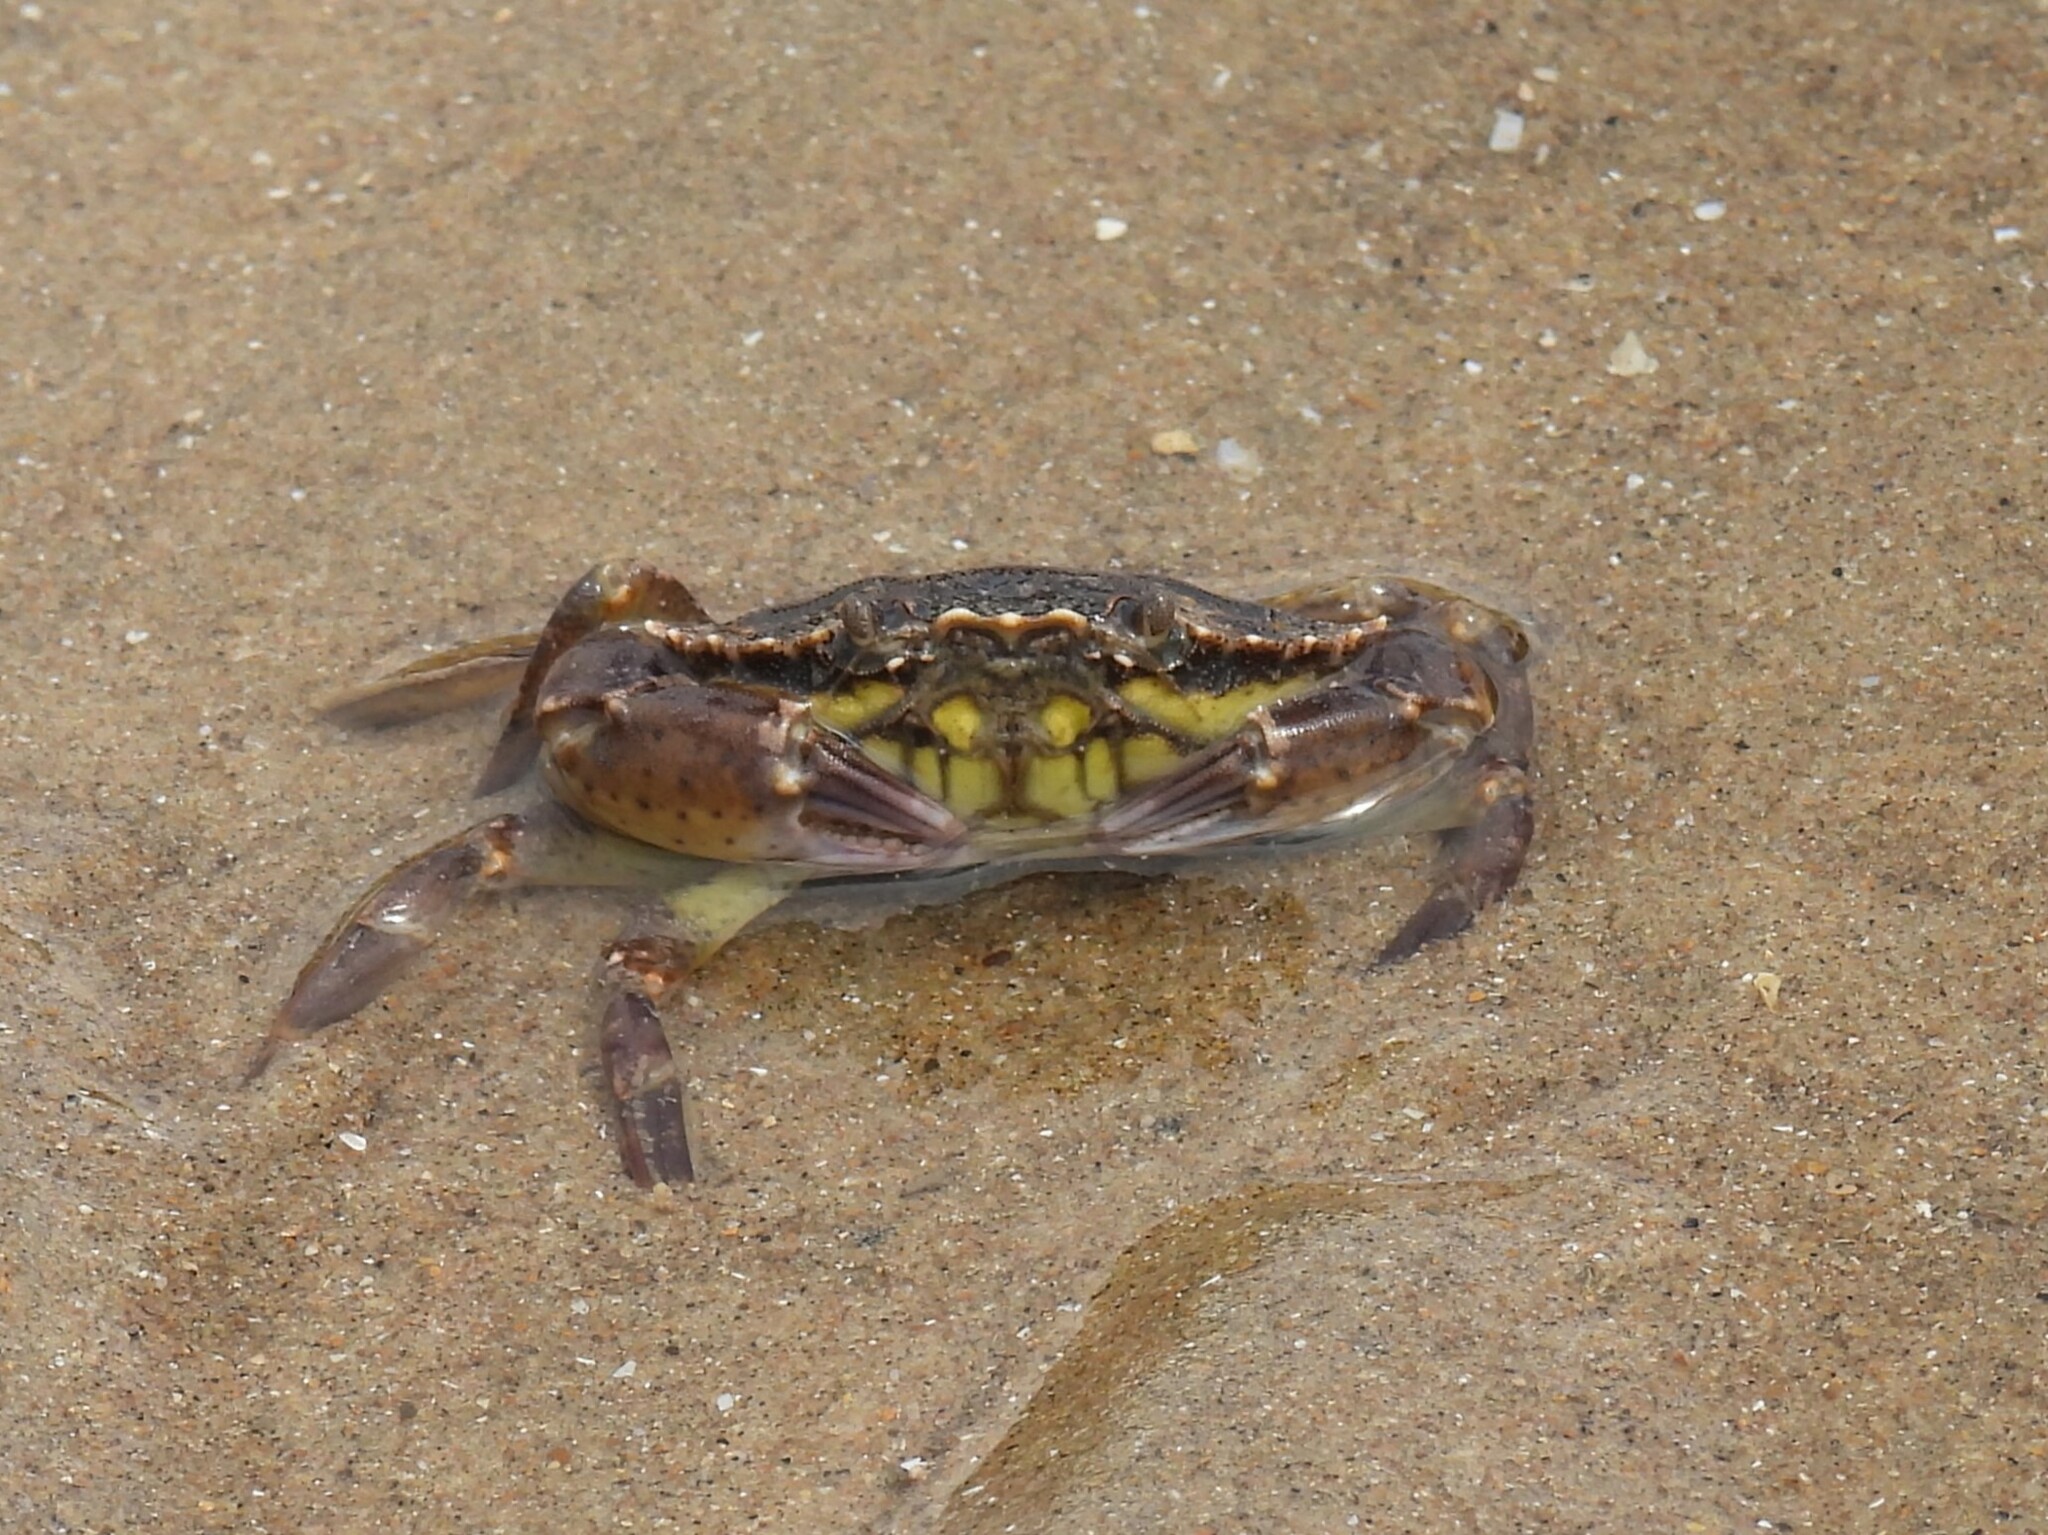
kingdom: Animalia
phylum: Arthropoda
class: Malacostraca
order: Decapoda
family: Carcinidae
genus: Carcinus
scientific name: Carcinus maenas
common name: European green crab
